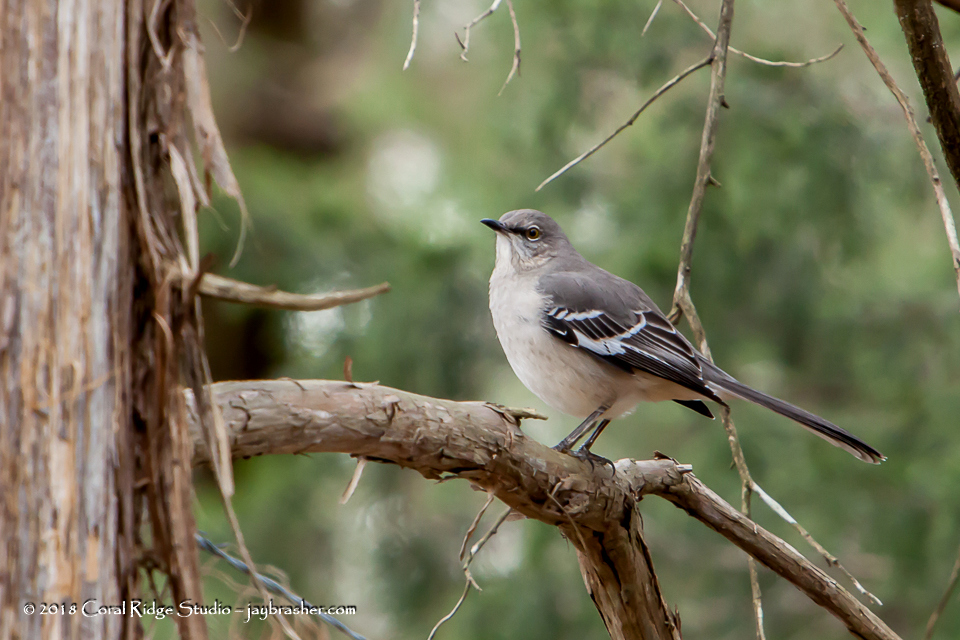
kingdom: Animalia
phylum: Chordata
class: Aves
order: Passeriformes
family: Mimidae
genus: Mimus
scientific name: Mimus polyglottos
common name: Northern mockingbird
